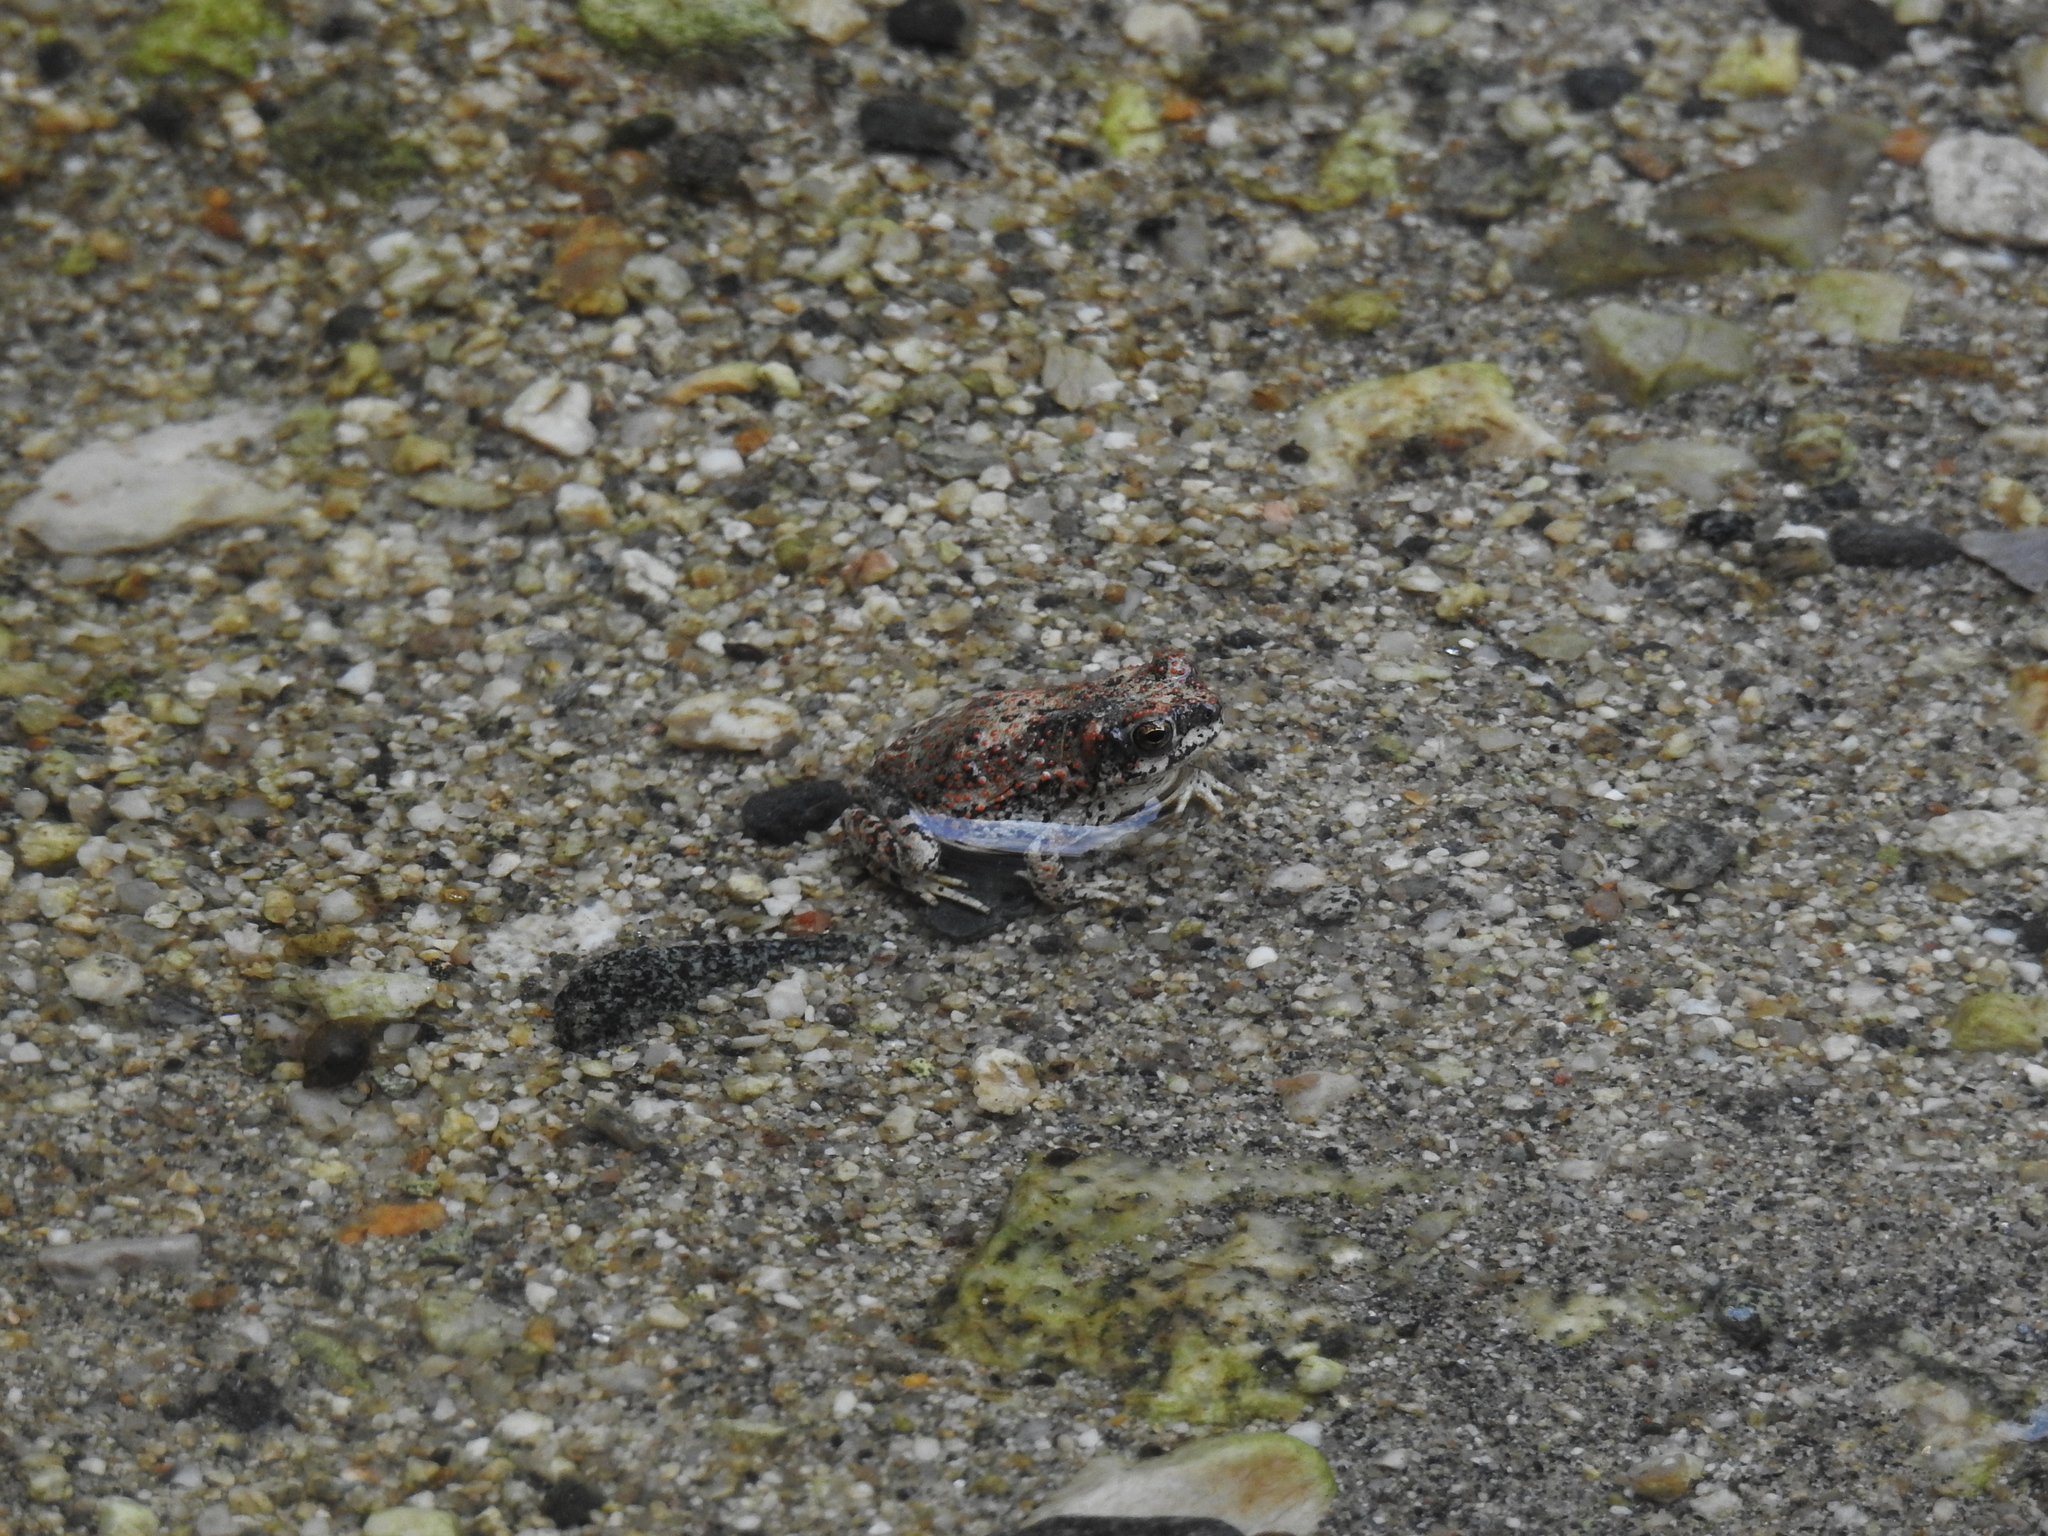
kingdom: Animalia
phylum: Chordata
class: Amphibia
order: Anura
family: Bufonidae
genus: Anaxyrus
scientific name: Anaxyrus punctatus
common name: Red-spotted toad
